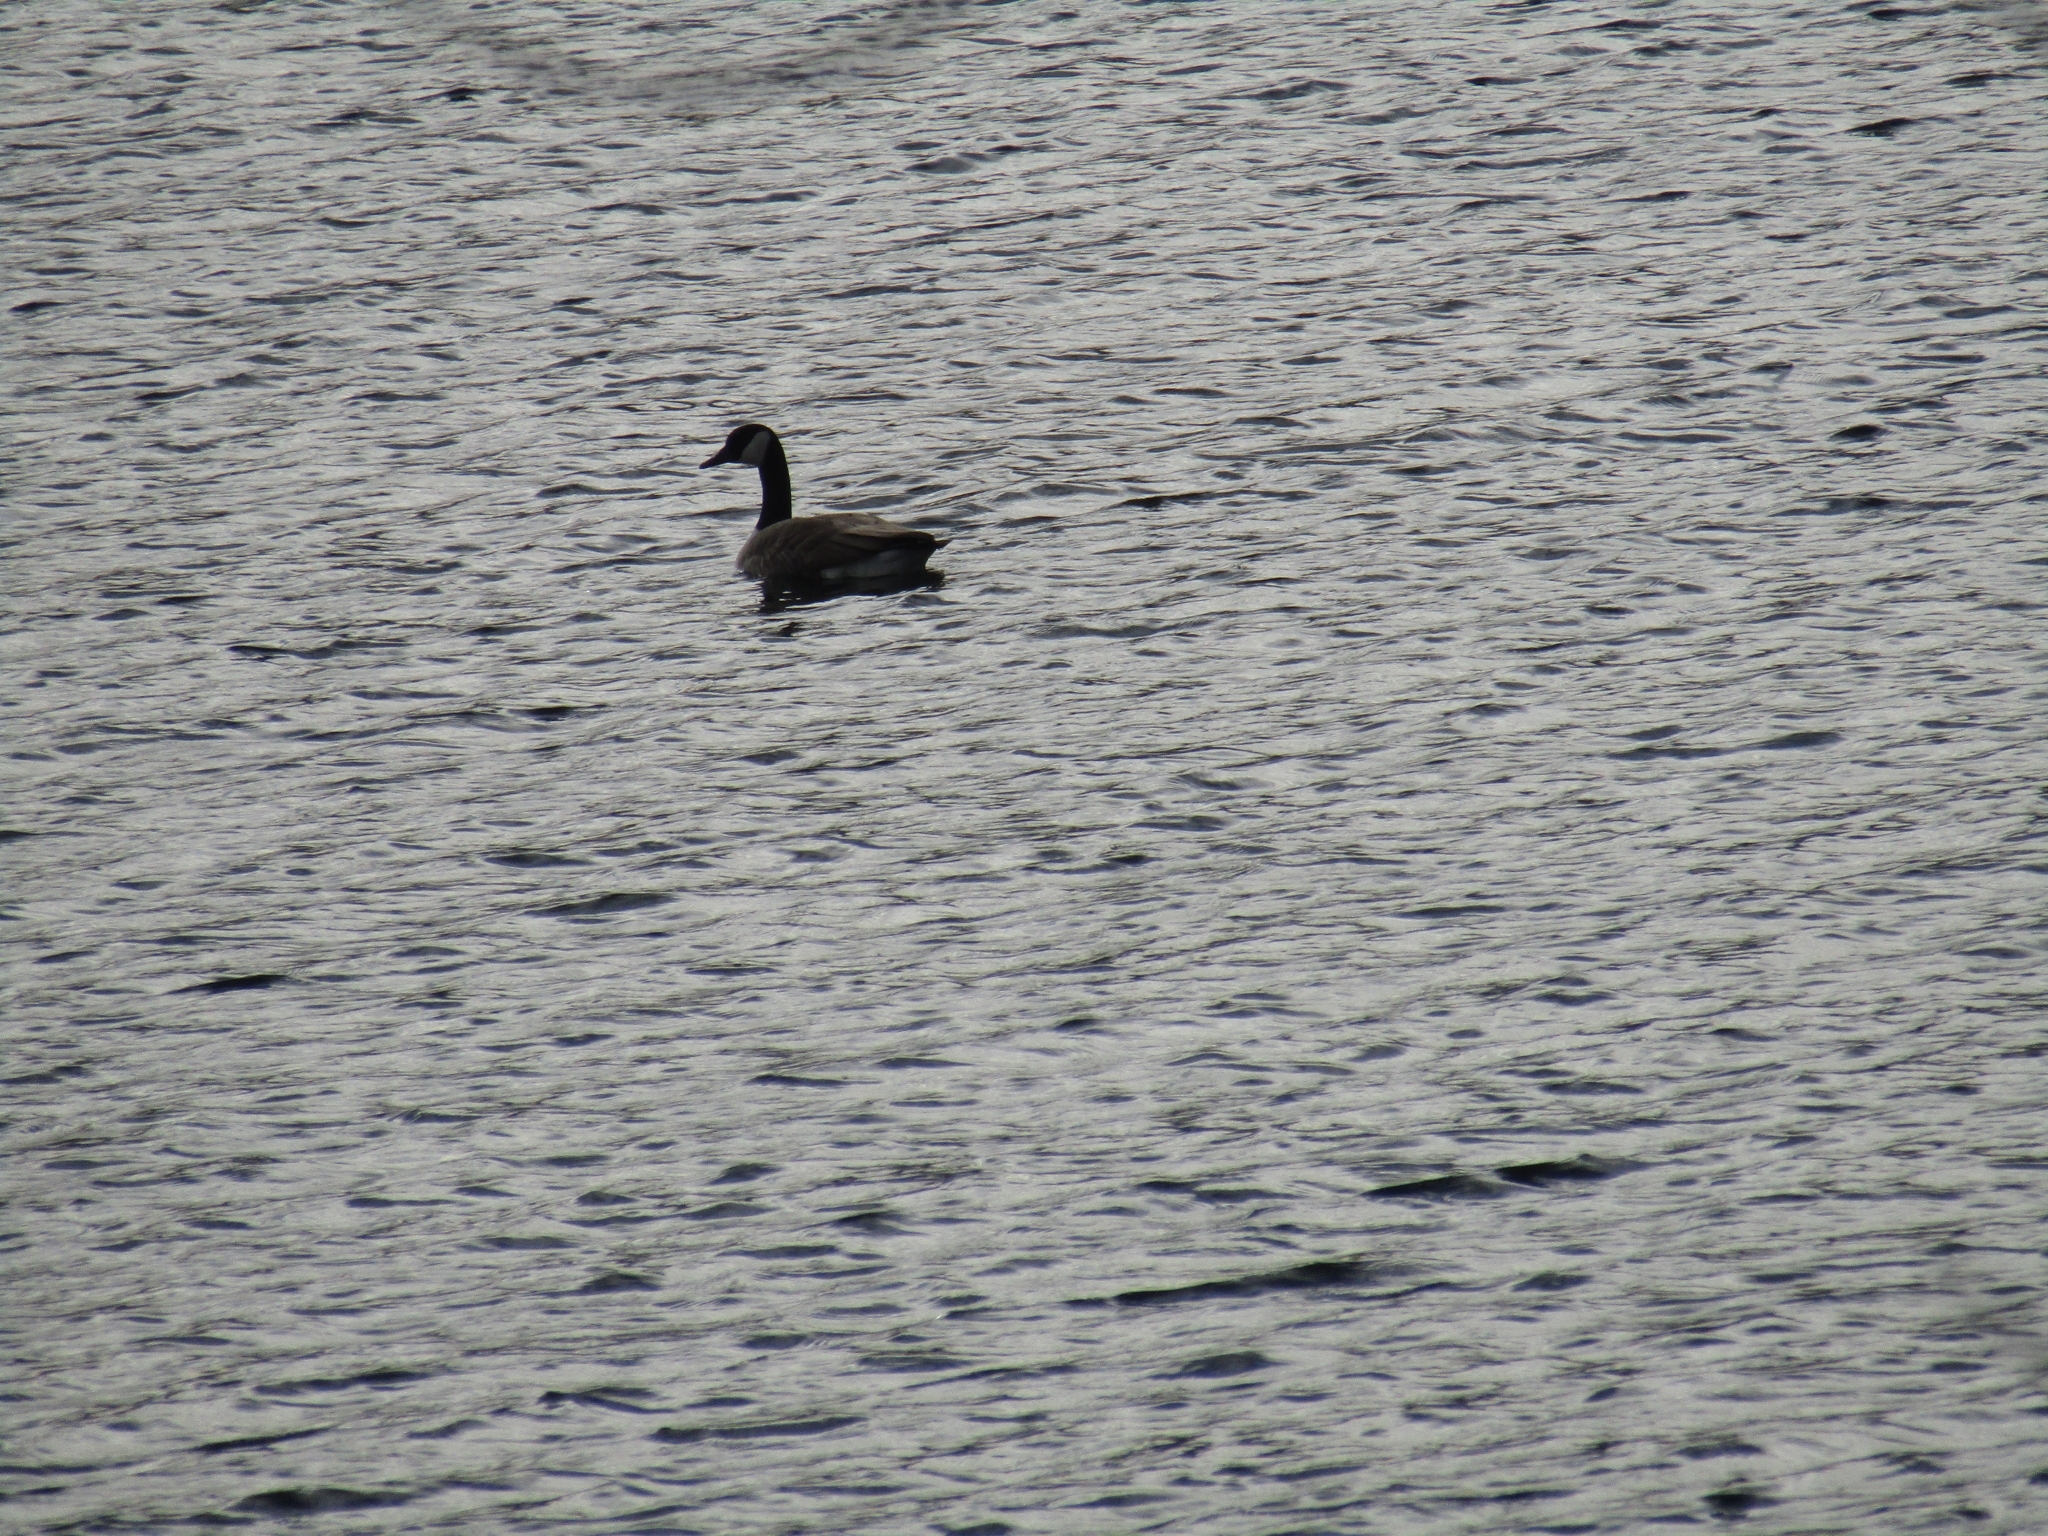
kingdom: Animalia
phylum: Chordata
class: Aves
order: Anseriformes
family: Anatidae
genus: Branta
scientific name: Branta canadensis
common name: Canada goose
